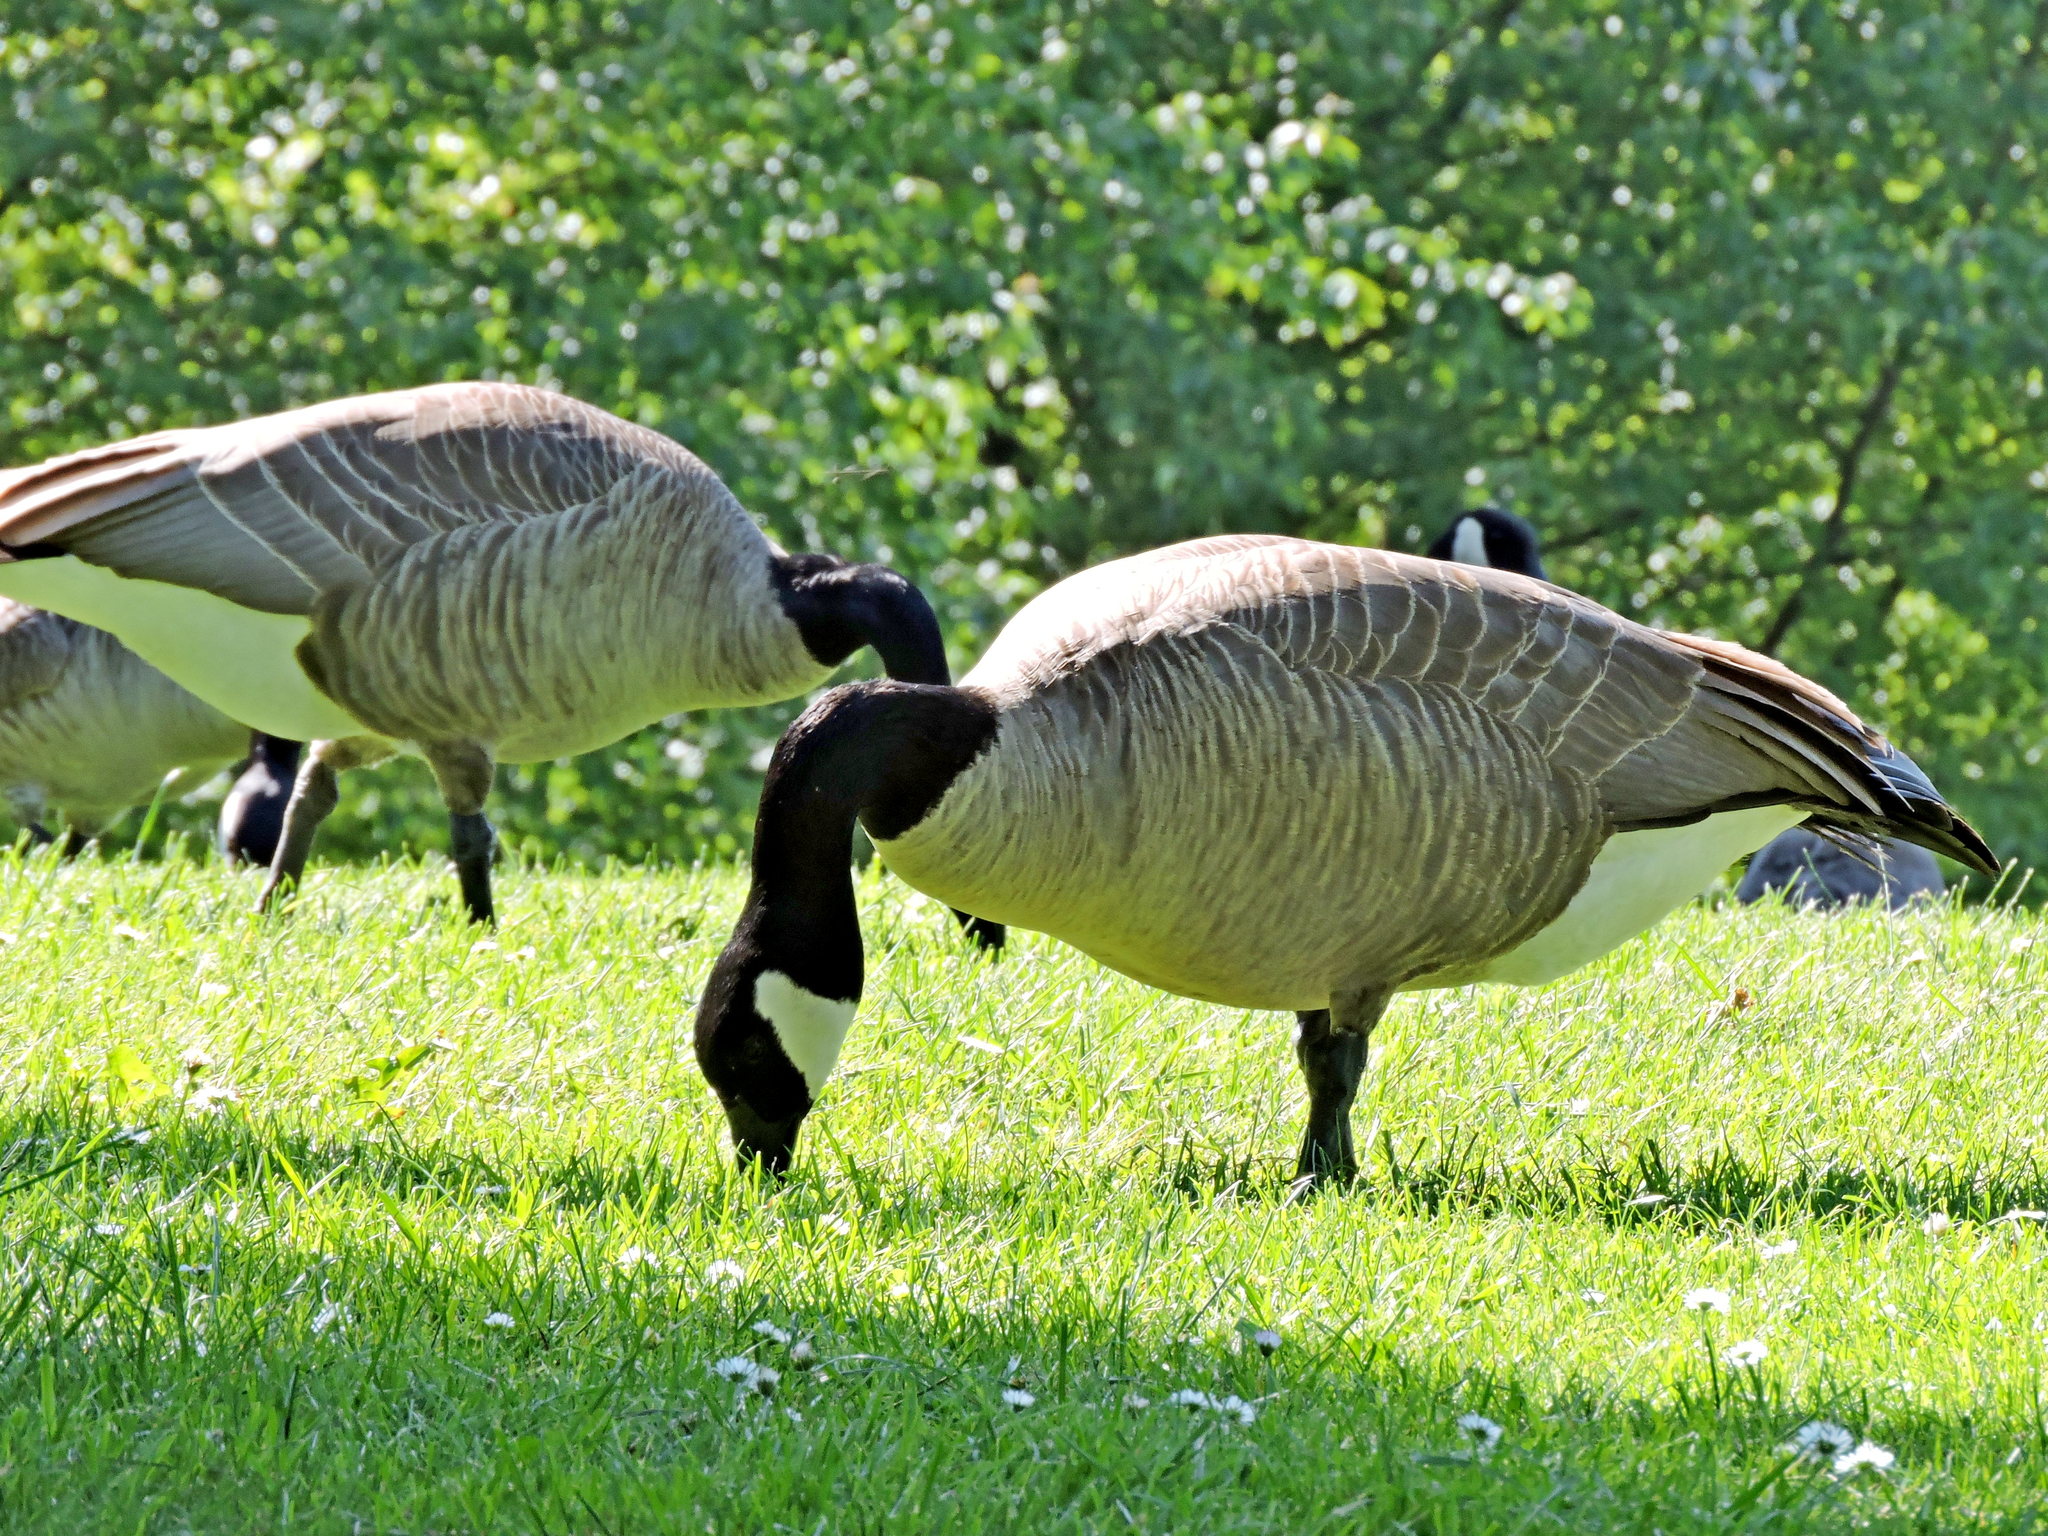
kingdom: Animalia
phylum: Chordata
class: Aves
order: Anseriformes
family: Anatidae
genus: Branta
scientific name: Branta canadensis
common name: Canada goose
